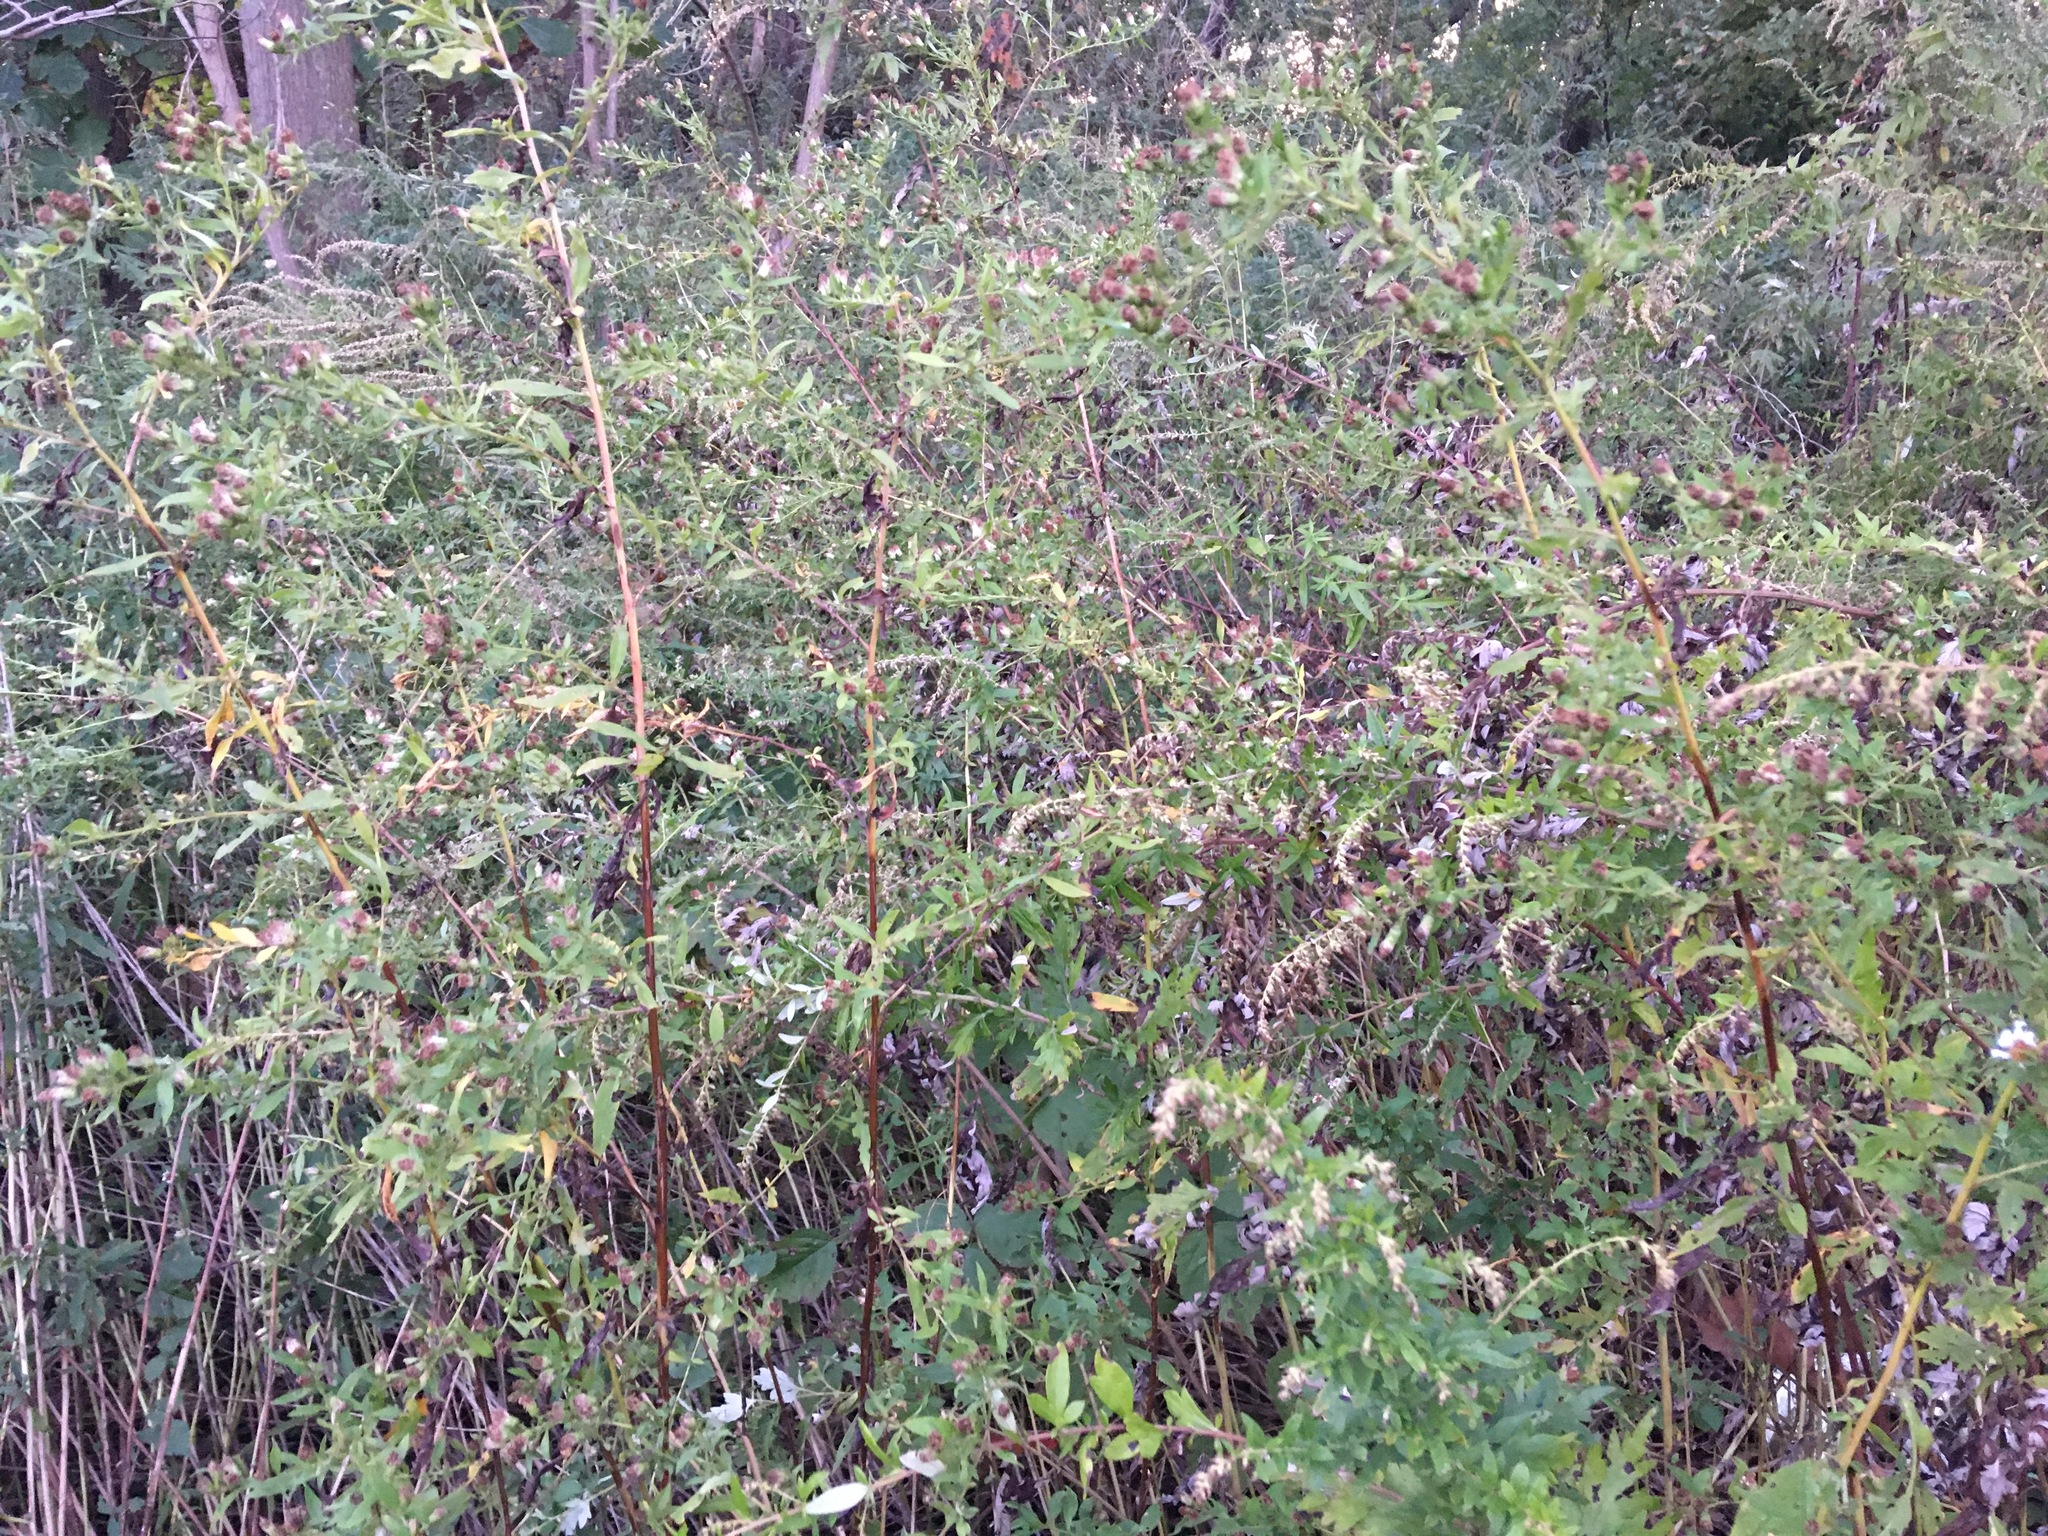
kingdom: Plantae
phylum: Tracheophyta
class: Magnoliopsida
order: Asterales
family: Asteraceae
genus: Artemisia
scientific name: Artemisia vulgaris
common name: Mugwort
